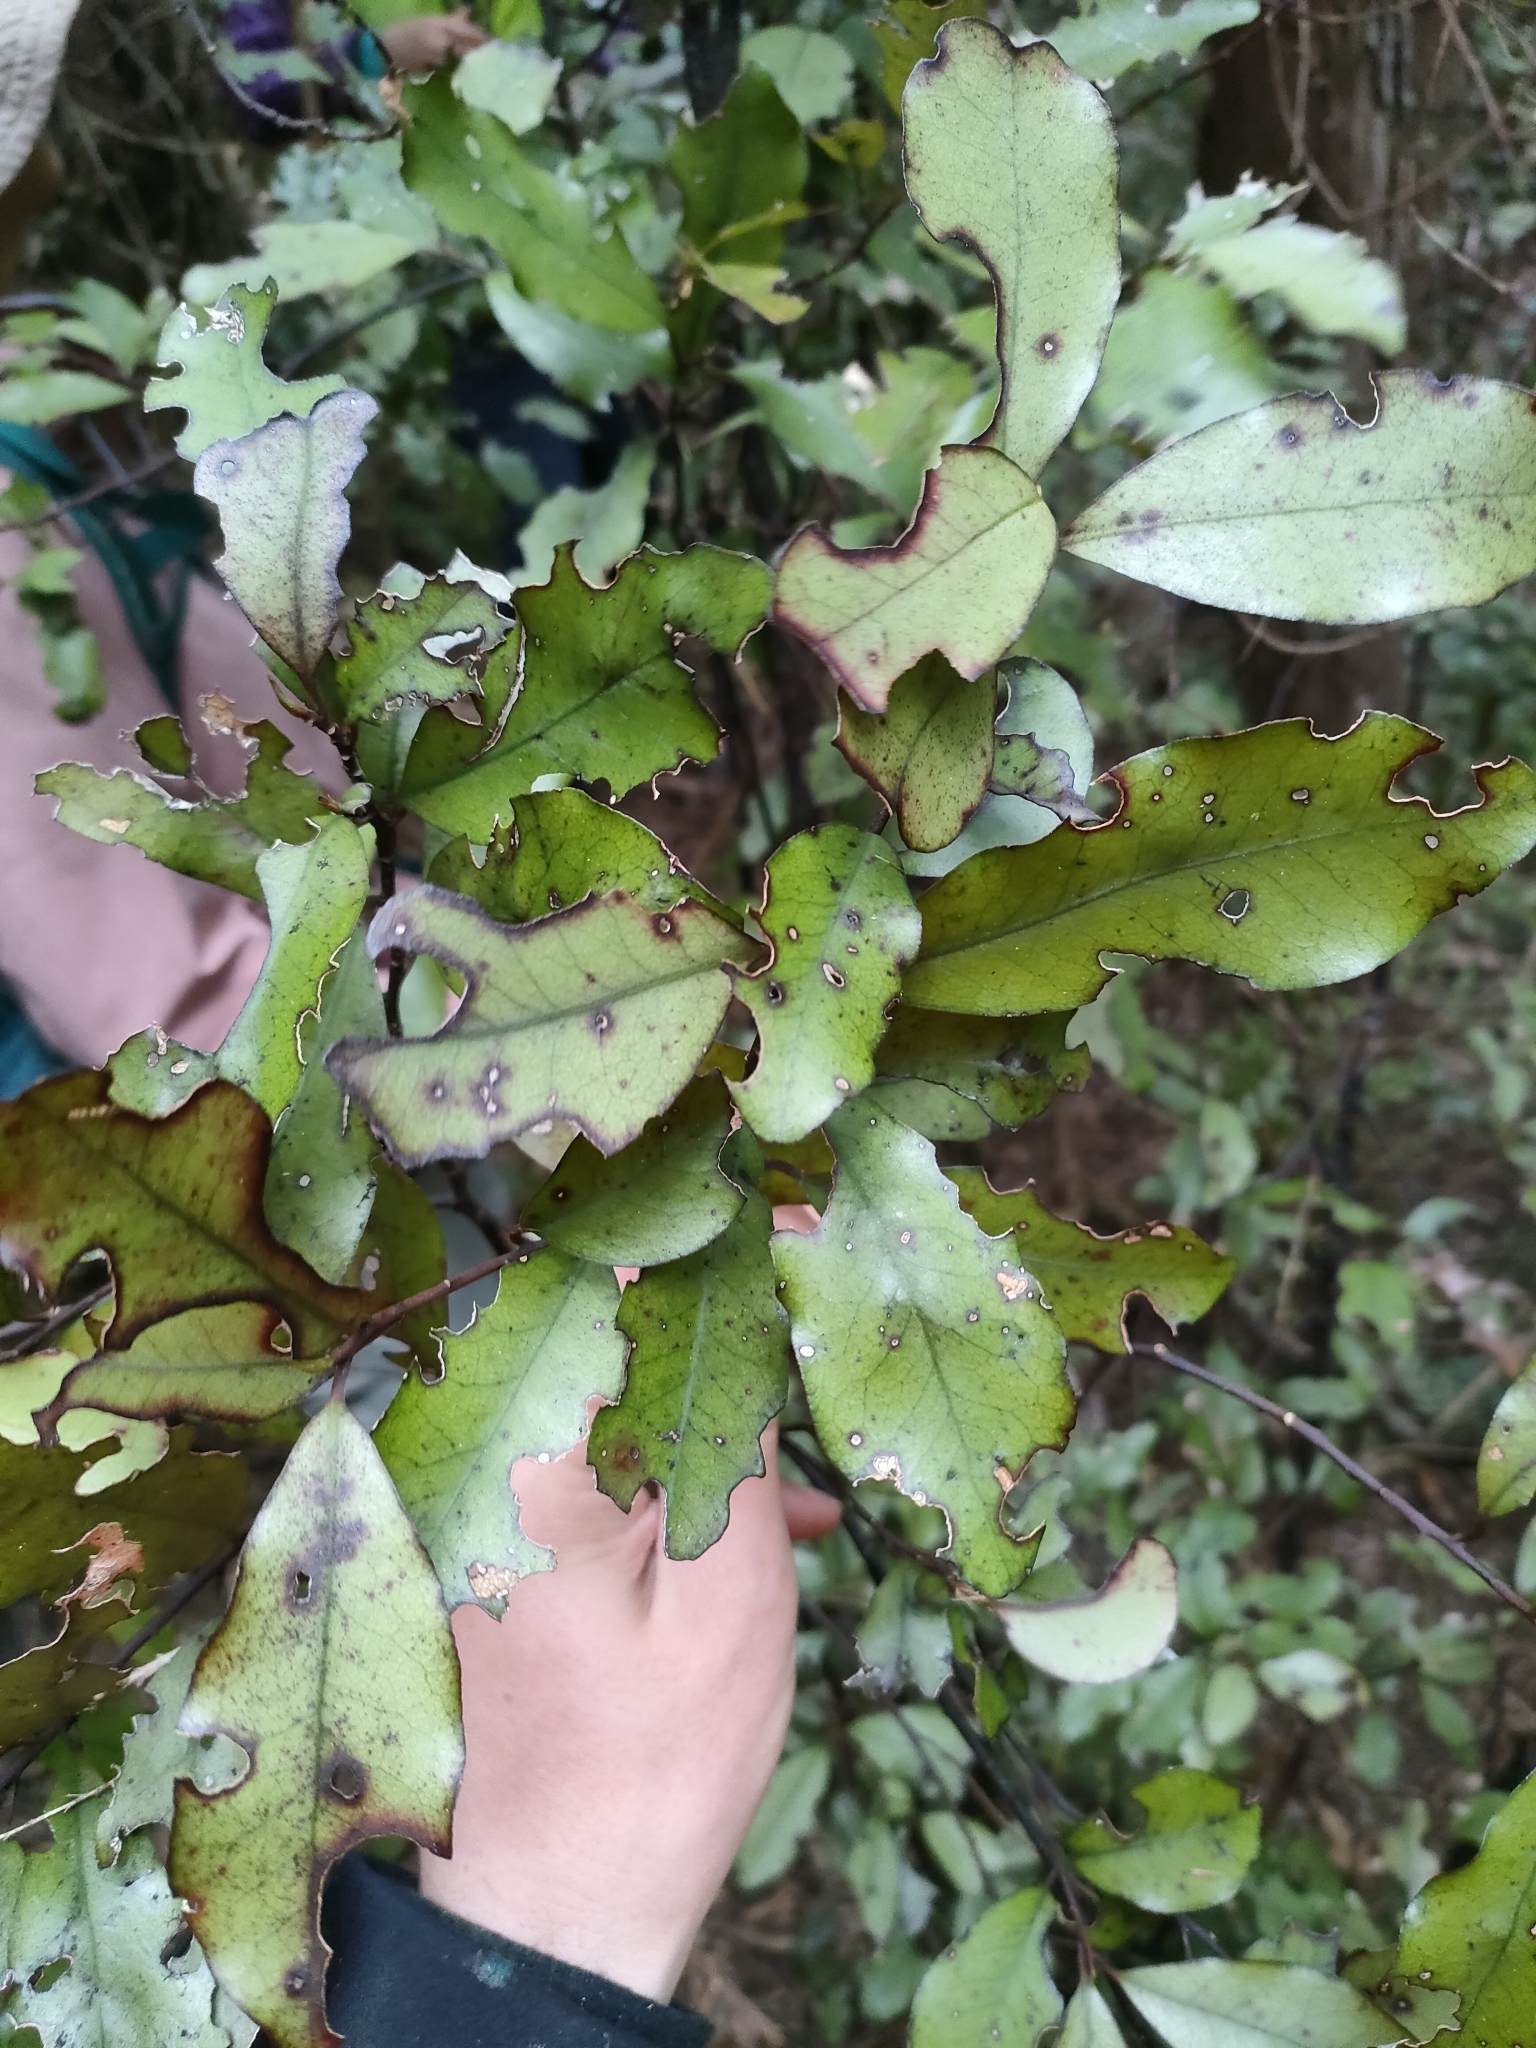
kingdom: Plantae
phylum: Tracheophyta
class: Magnoliopsida
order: Canellales
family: Winteraceae
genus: Pseudowintera
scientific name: Pseudowintera colorata
